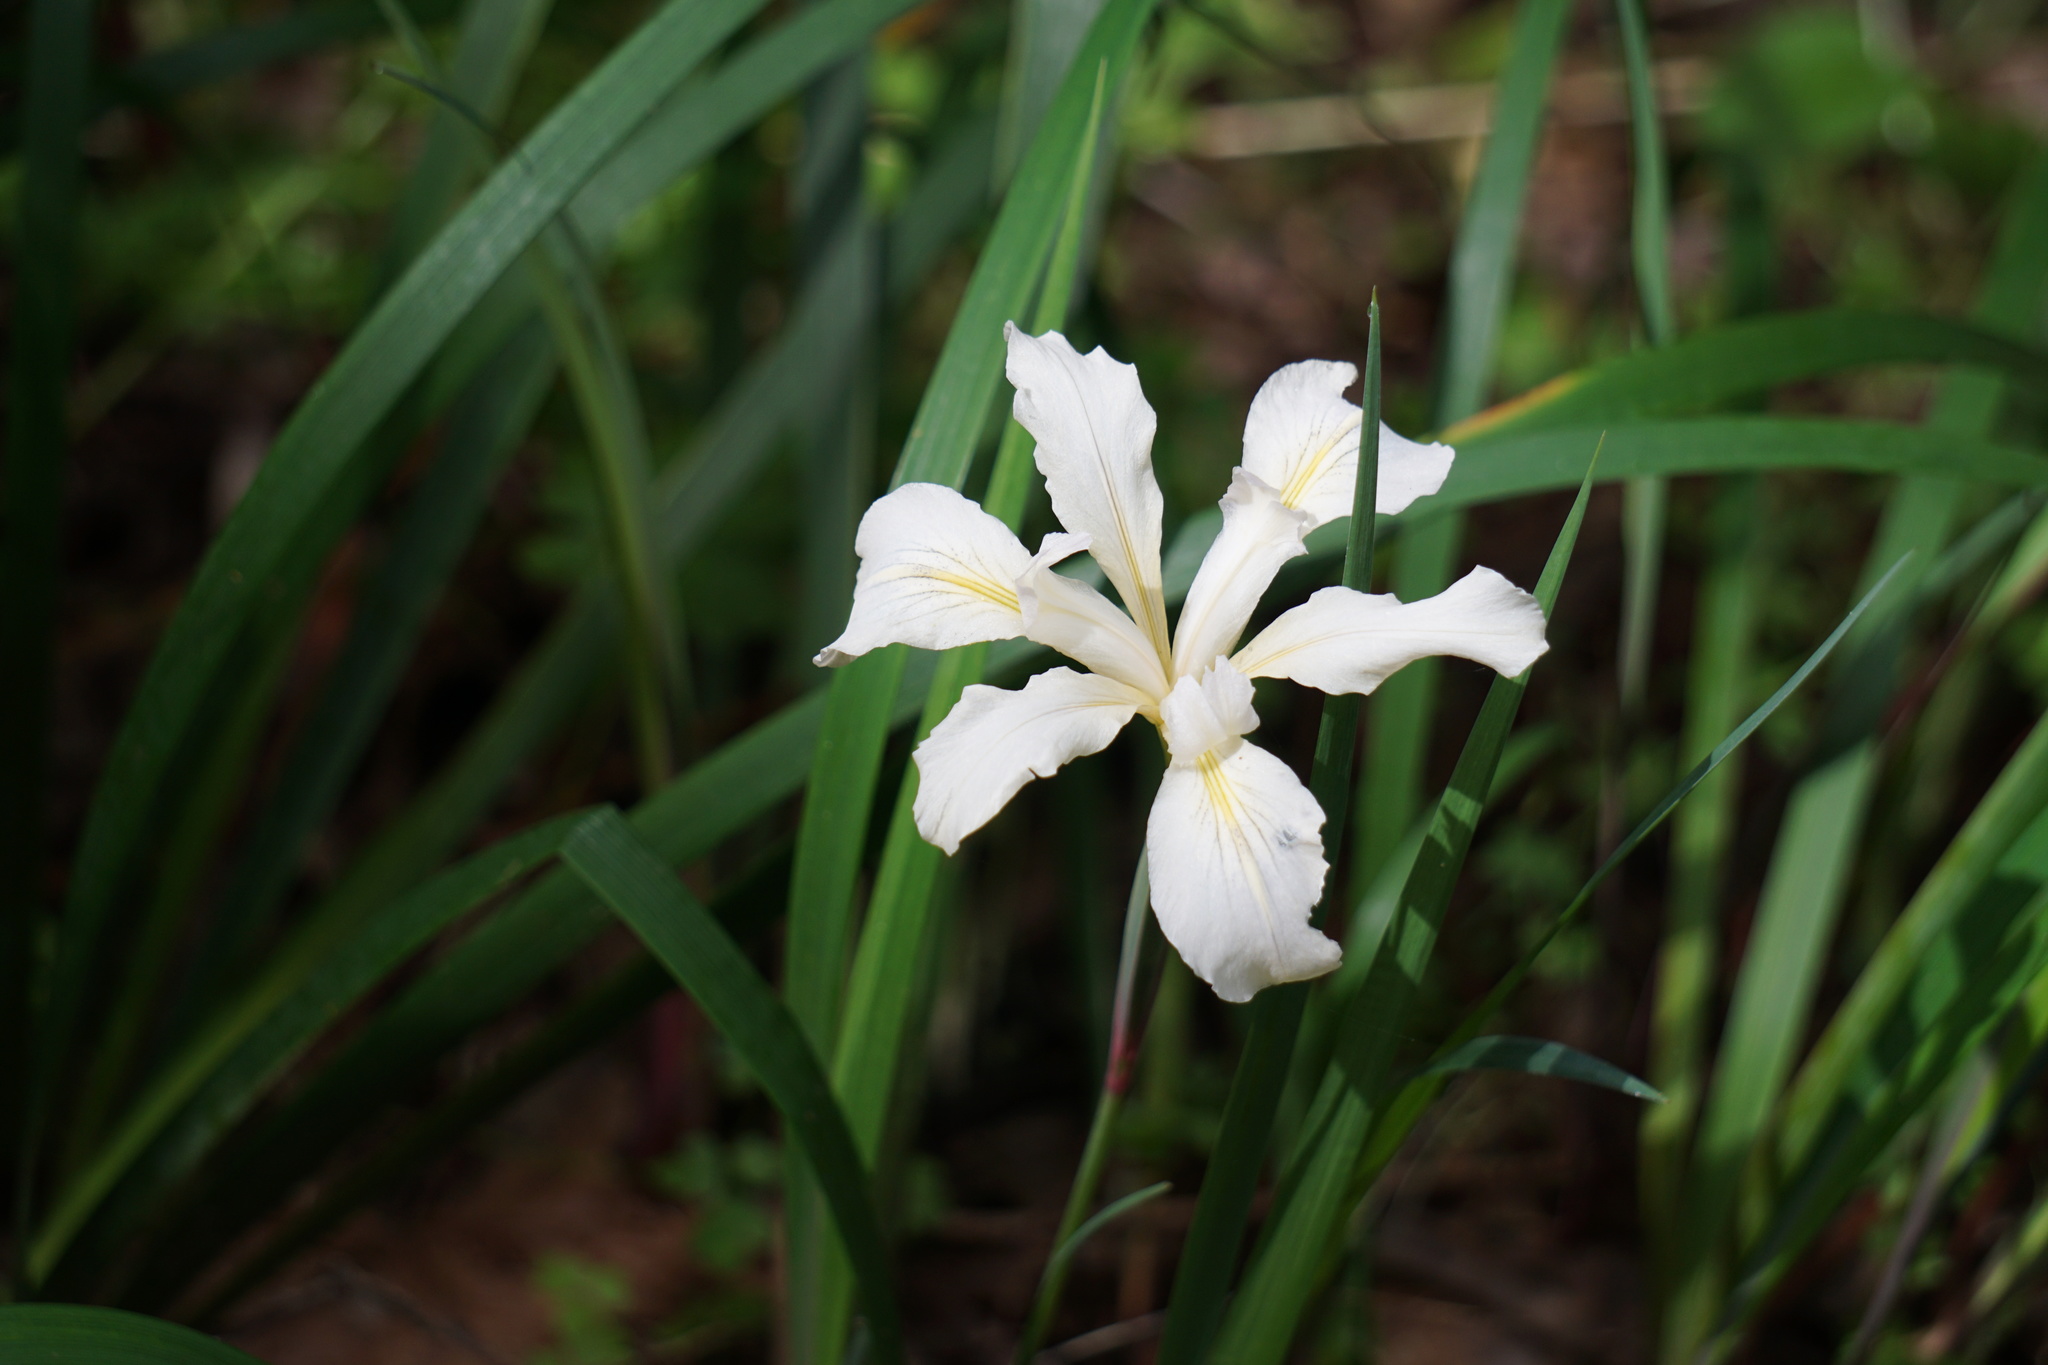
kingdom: Plantae
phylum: Tracheophyta
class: Liliopsida
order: Asparagales
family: Iridaceae
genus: Iris
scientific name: Iris douglasiana
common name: Marin iris
